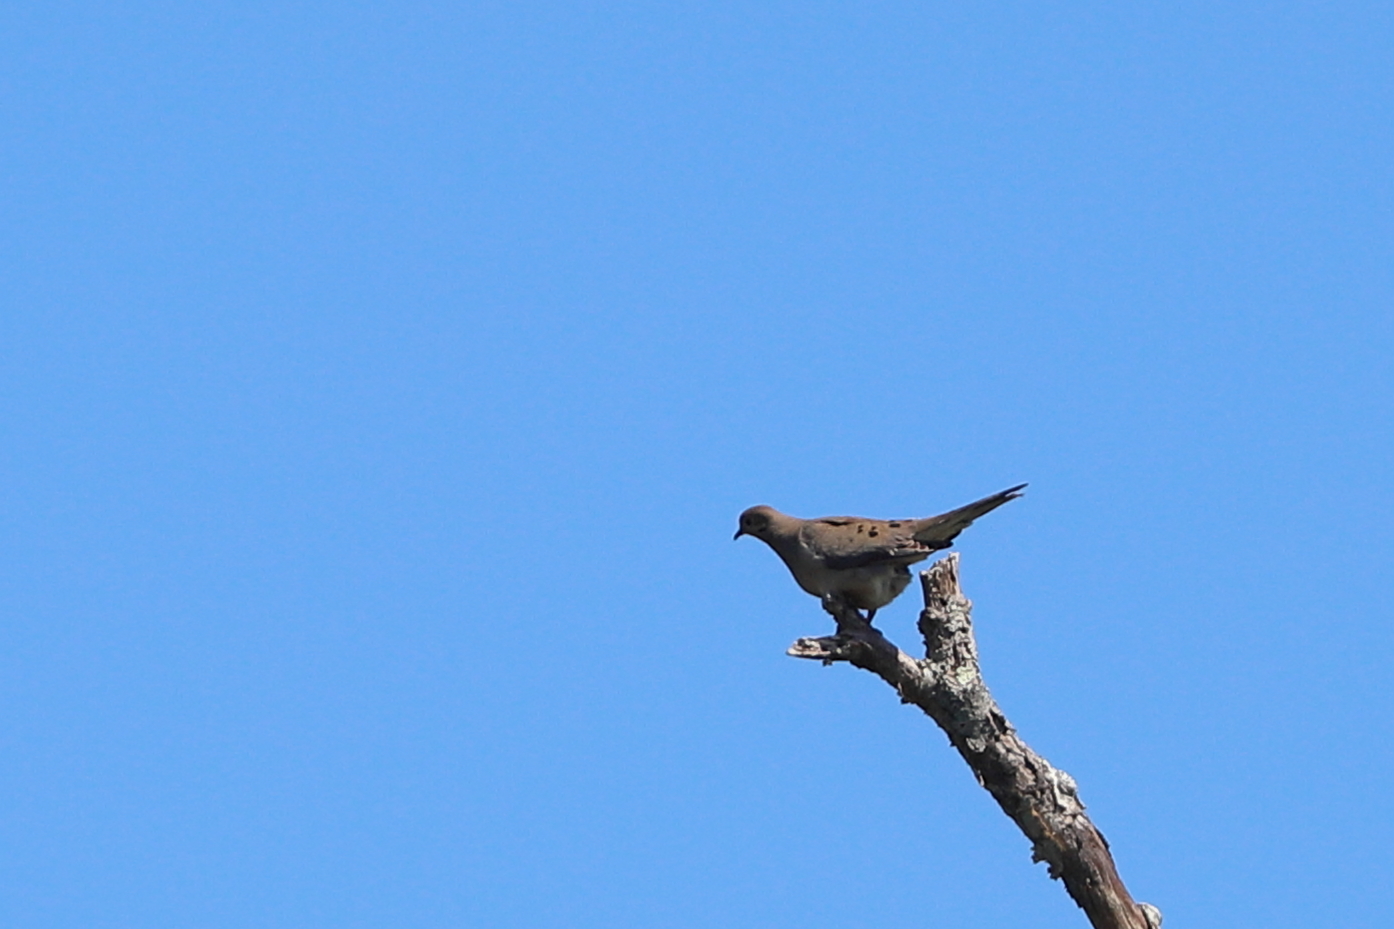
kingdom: Animalia
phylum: Chordata
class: Aves
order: Columbiformes
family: Columbidae
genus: Zenaida
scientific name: Zenaida macroura
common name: Mourning dove
